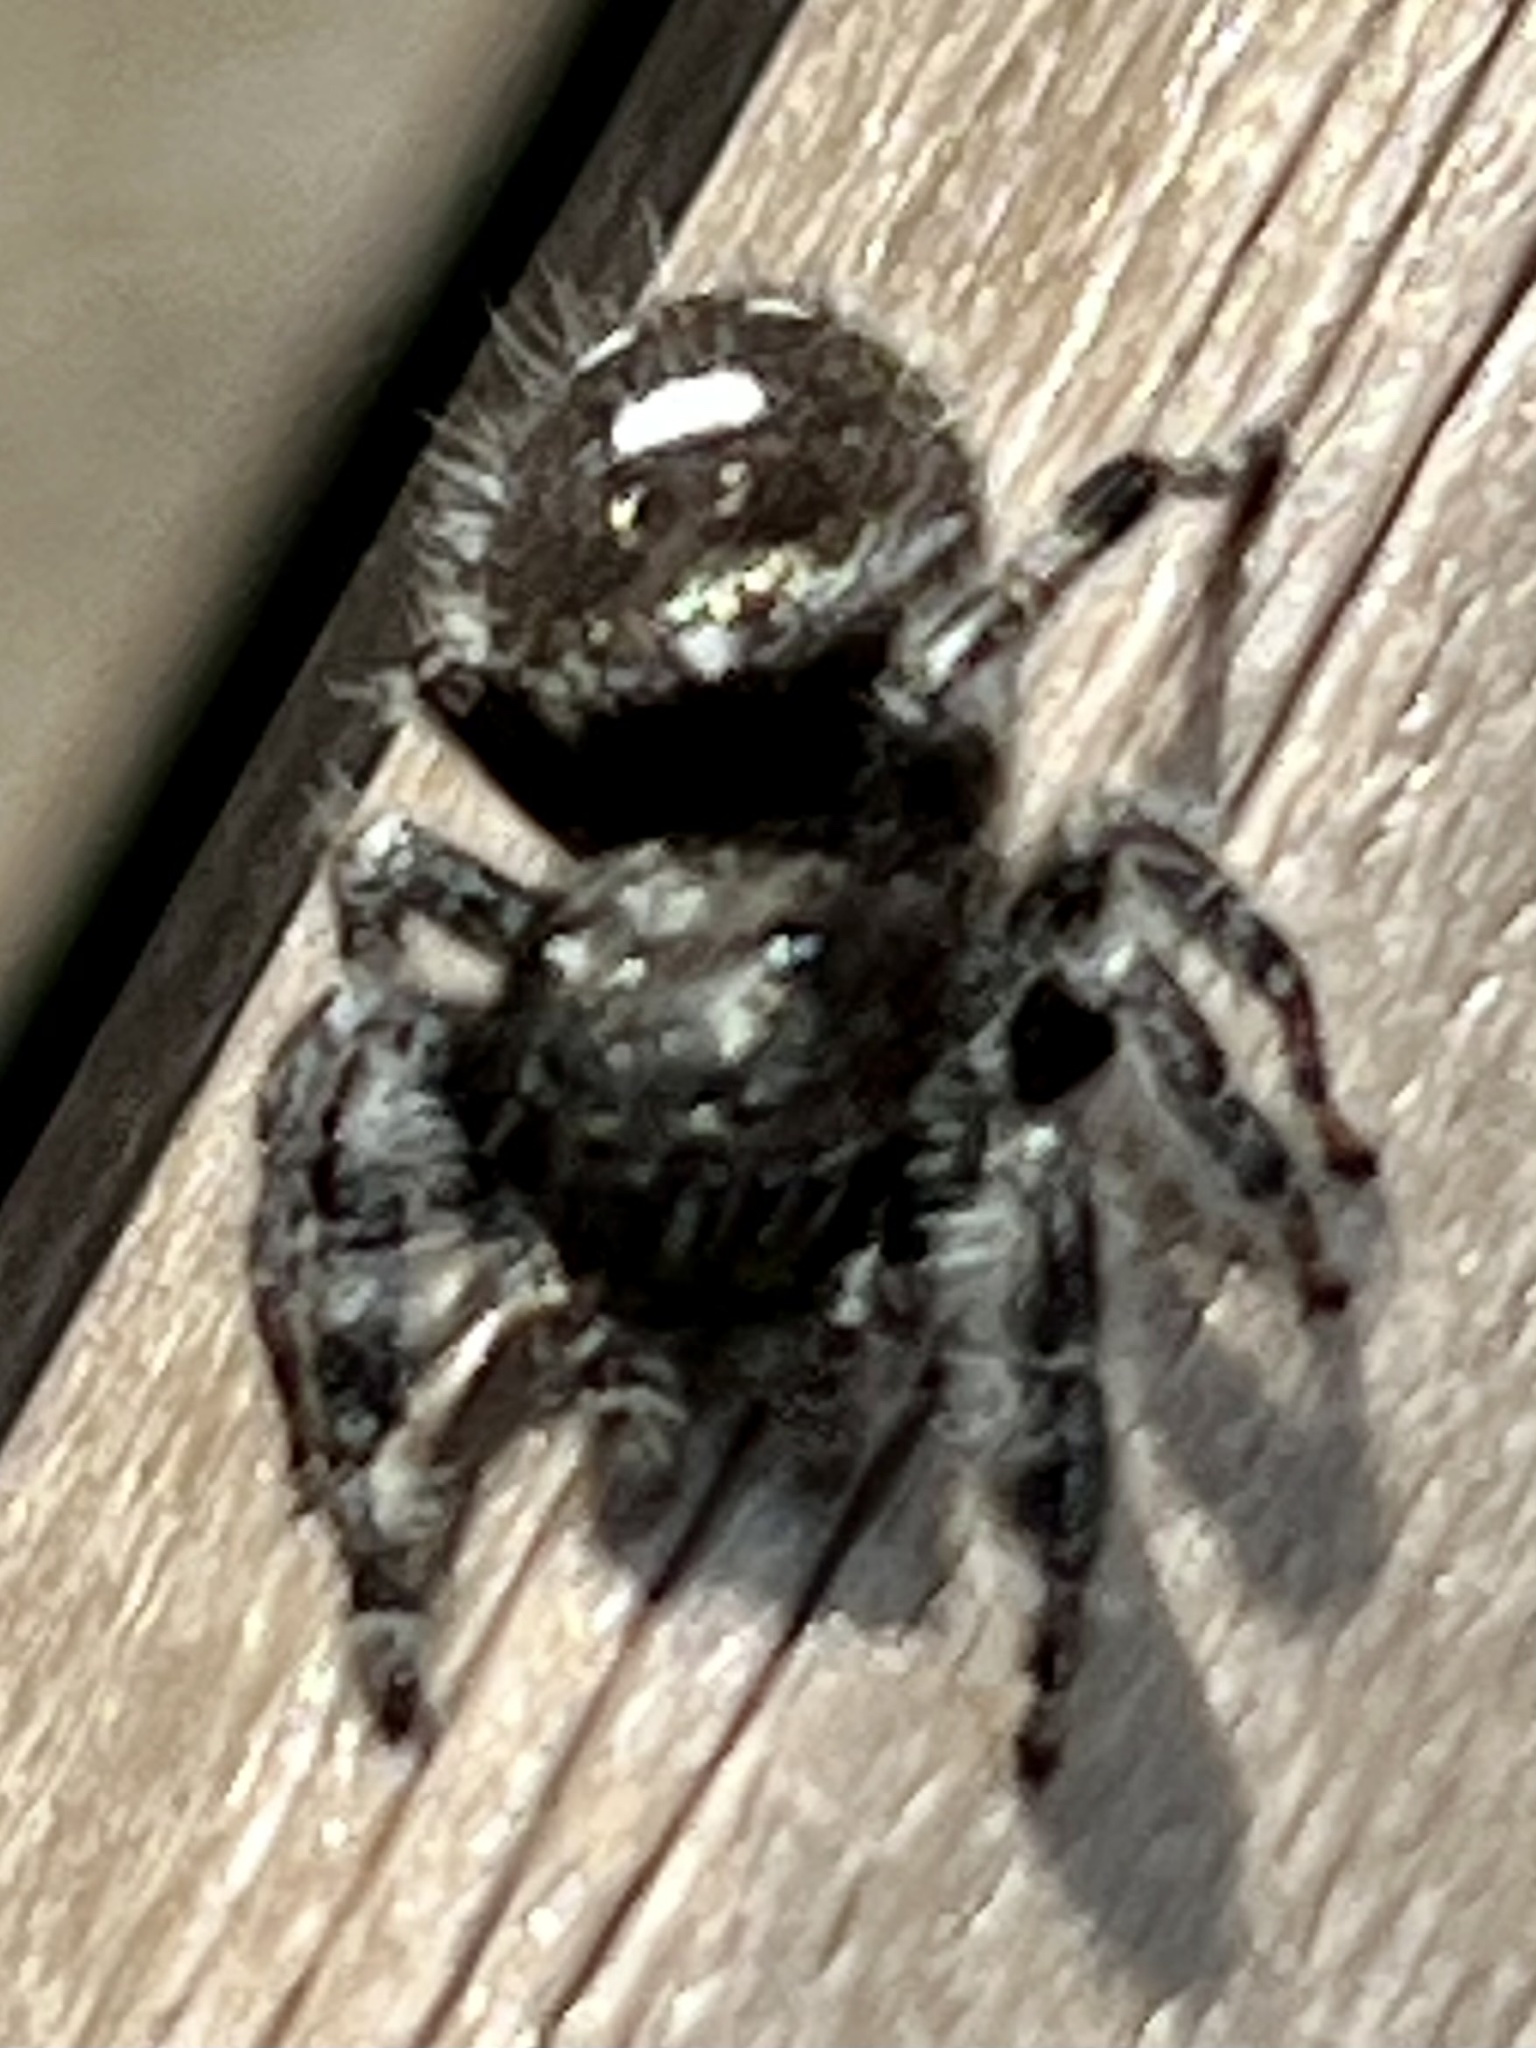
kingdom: Animalia
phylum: Arthropoda
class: Arachnida
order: Araneae
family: Salticidae
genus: Phidippus
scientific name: Phidippus audax
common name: Bold jumper
